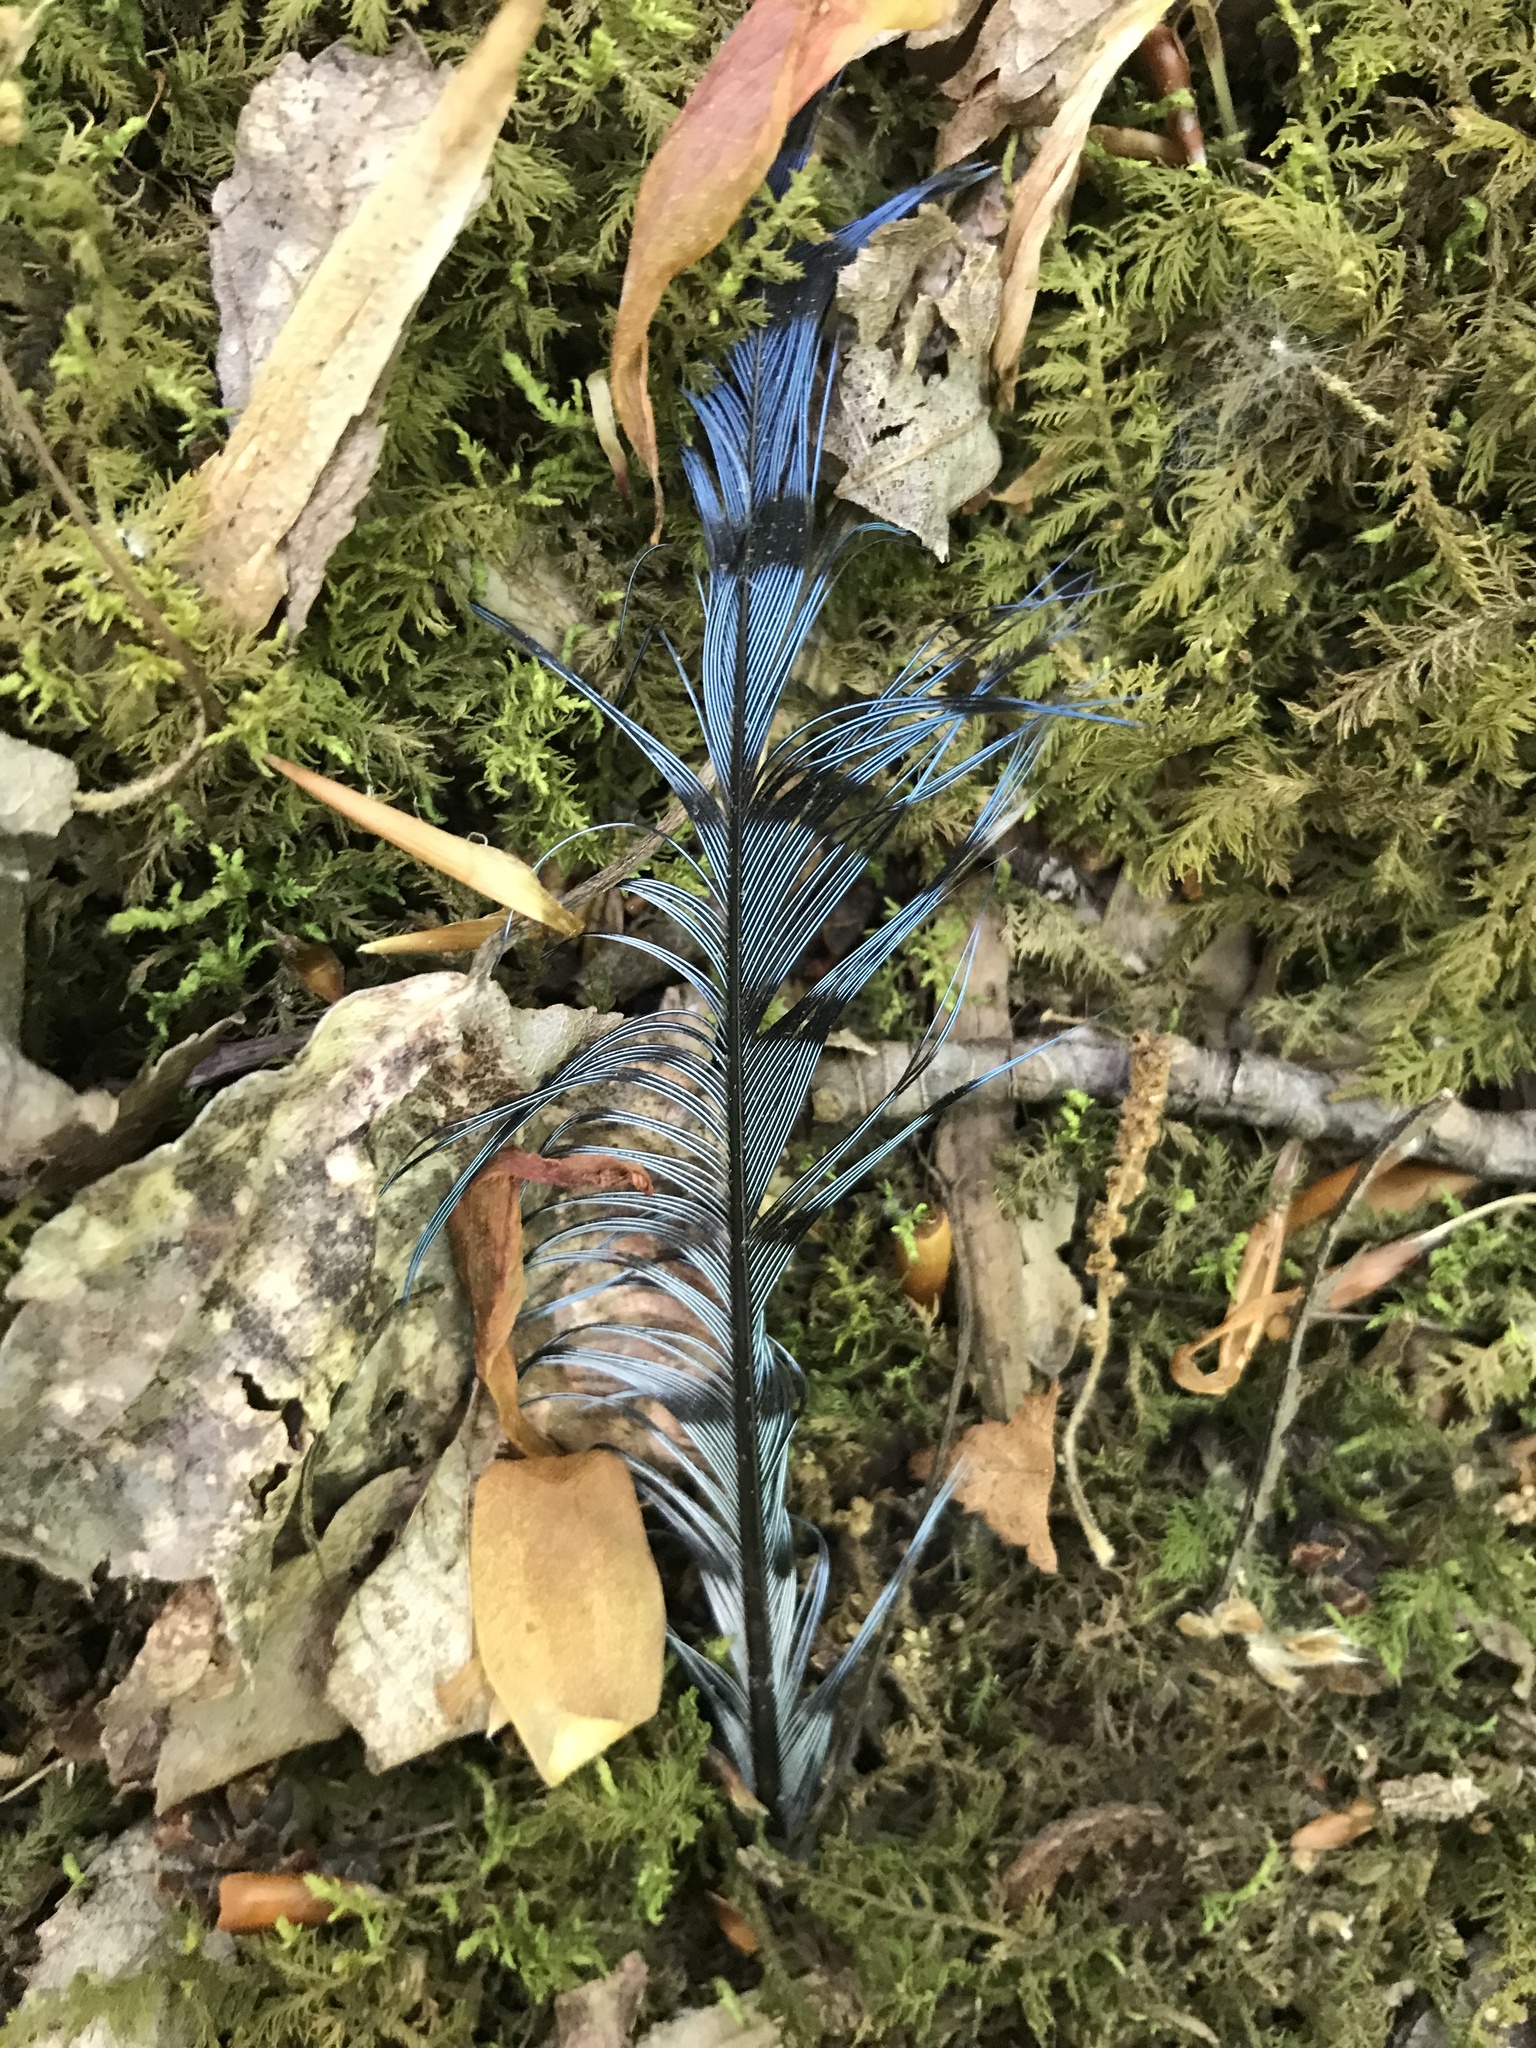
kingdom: Animalia
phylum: Chordata
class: Aves
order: Passeriformes
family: Corvidae
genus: Cyanocitta
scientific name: Cyanocitta cristata
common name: Blue jay
